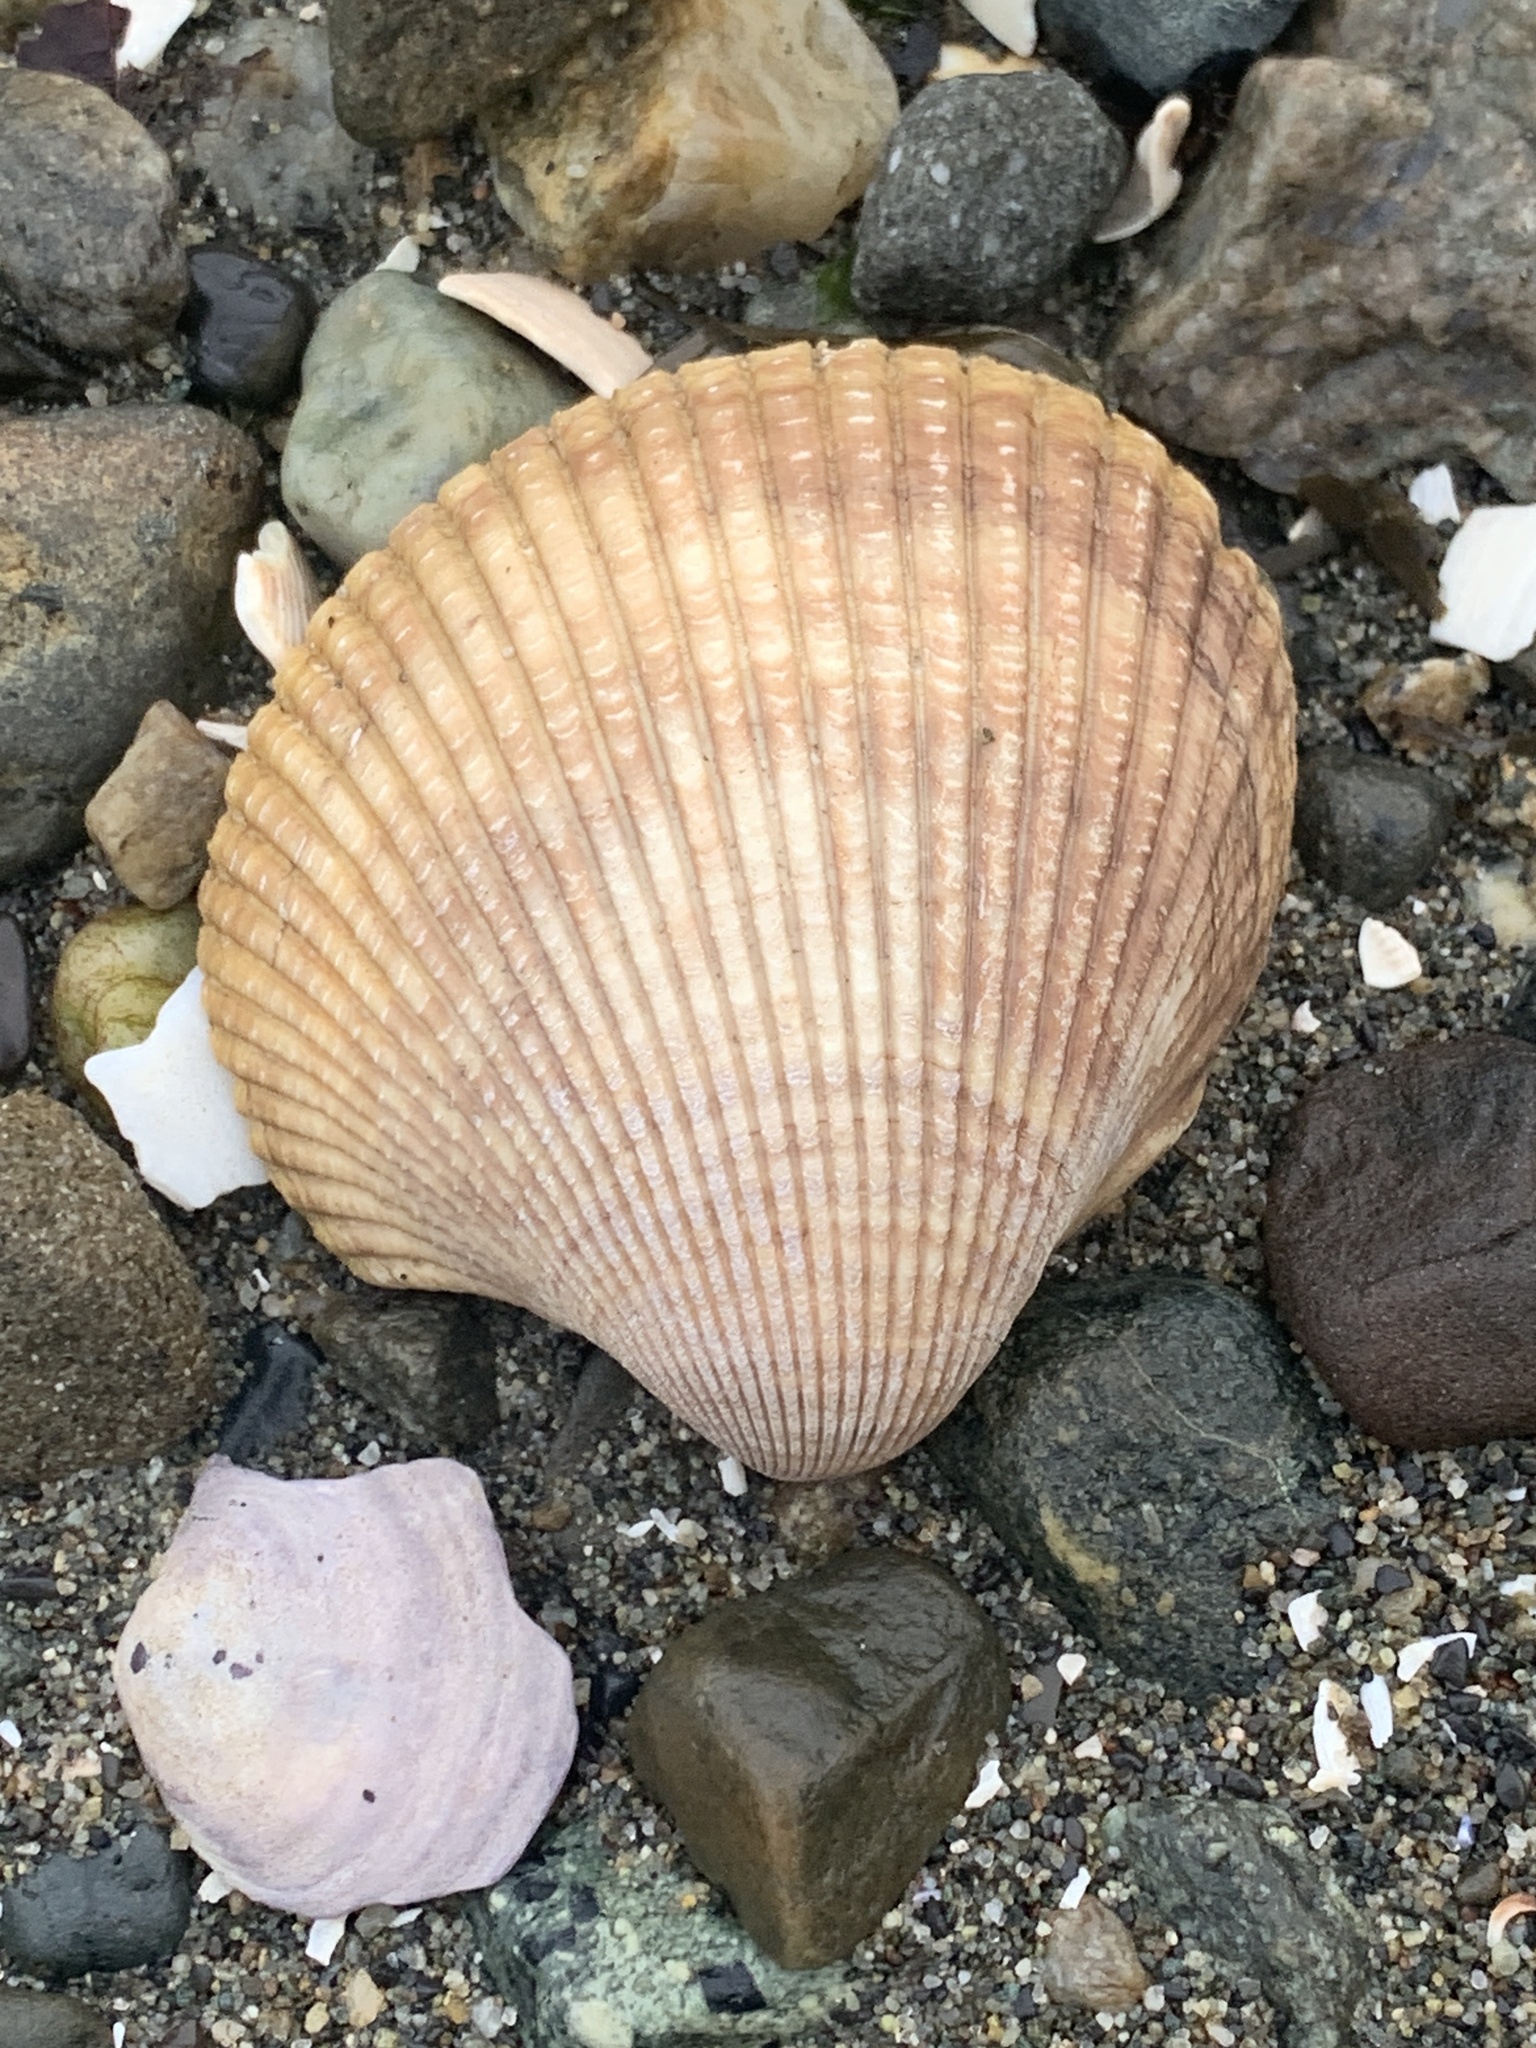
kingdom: Animalia
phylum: Mollusca
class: Bivalvia
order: Cardiida
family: Cardiidae
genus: Clinocardium
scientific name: Clinocardium nuttallii
